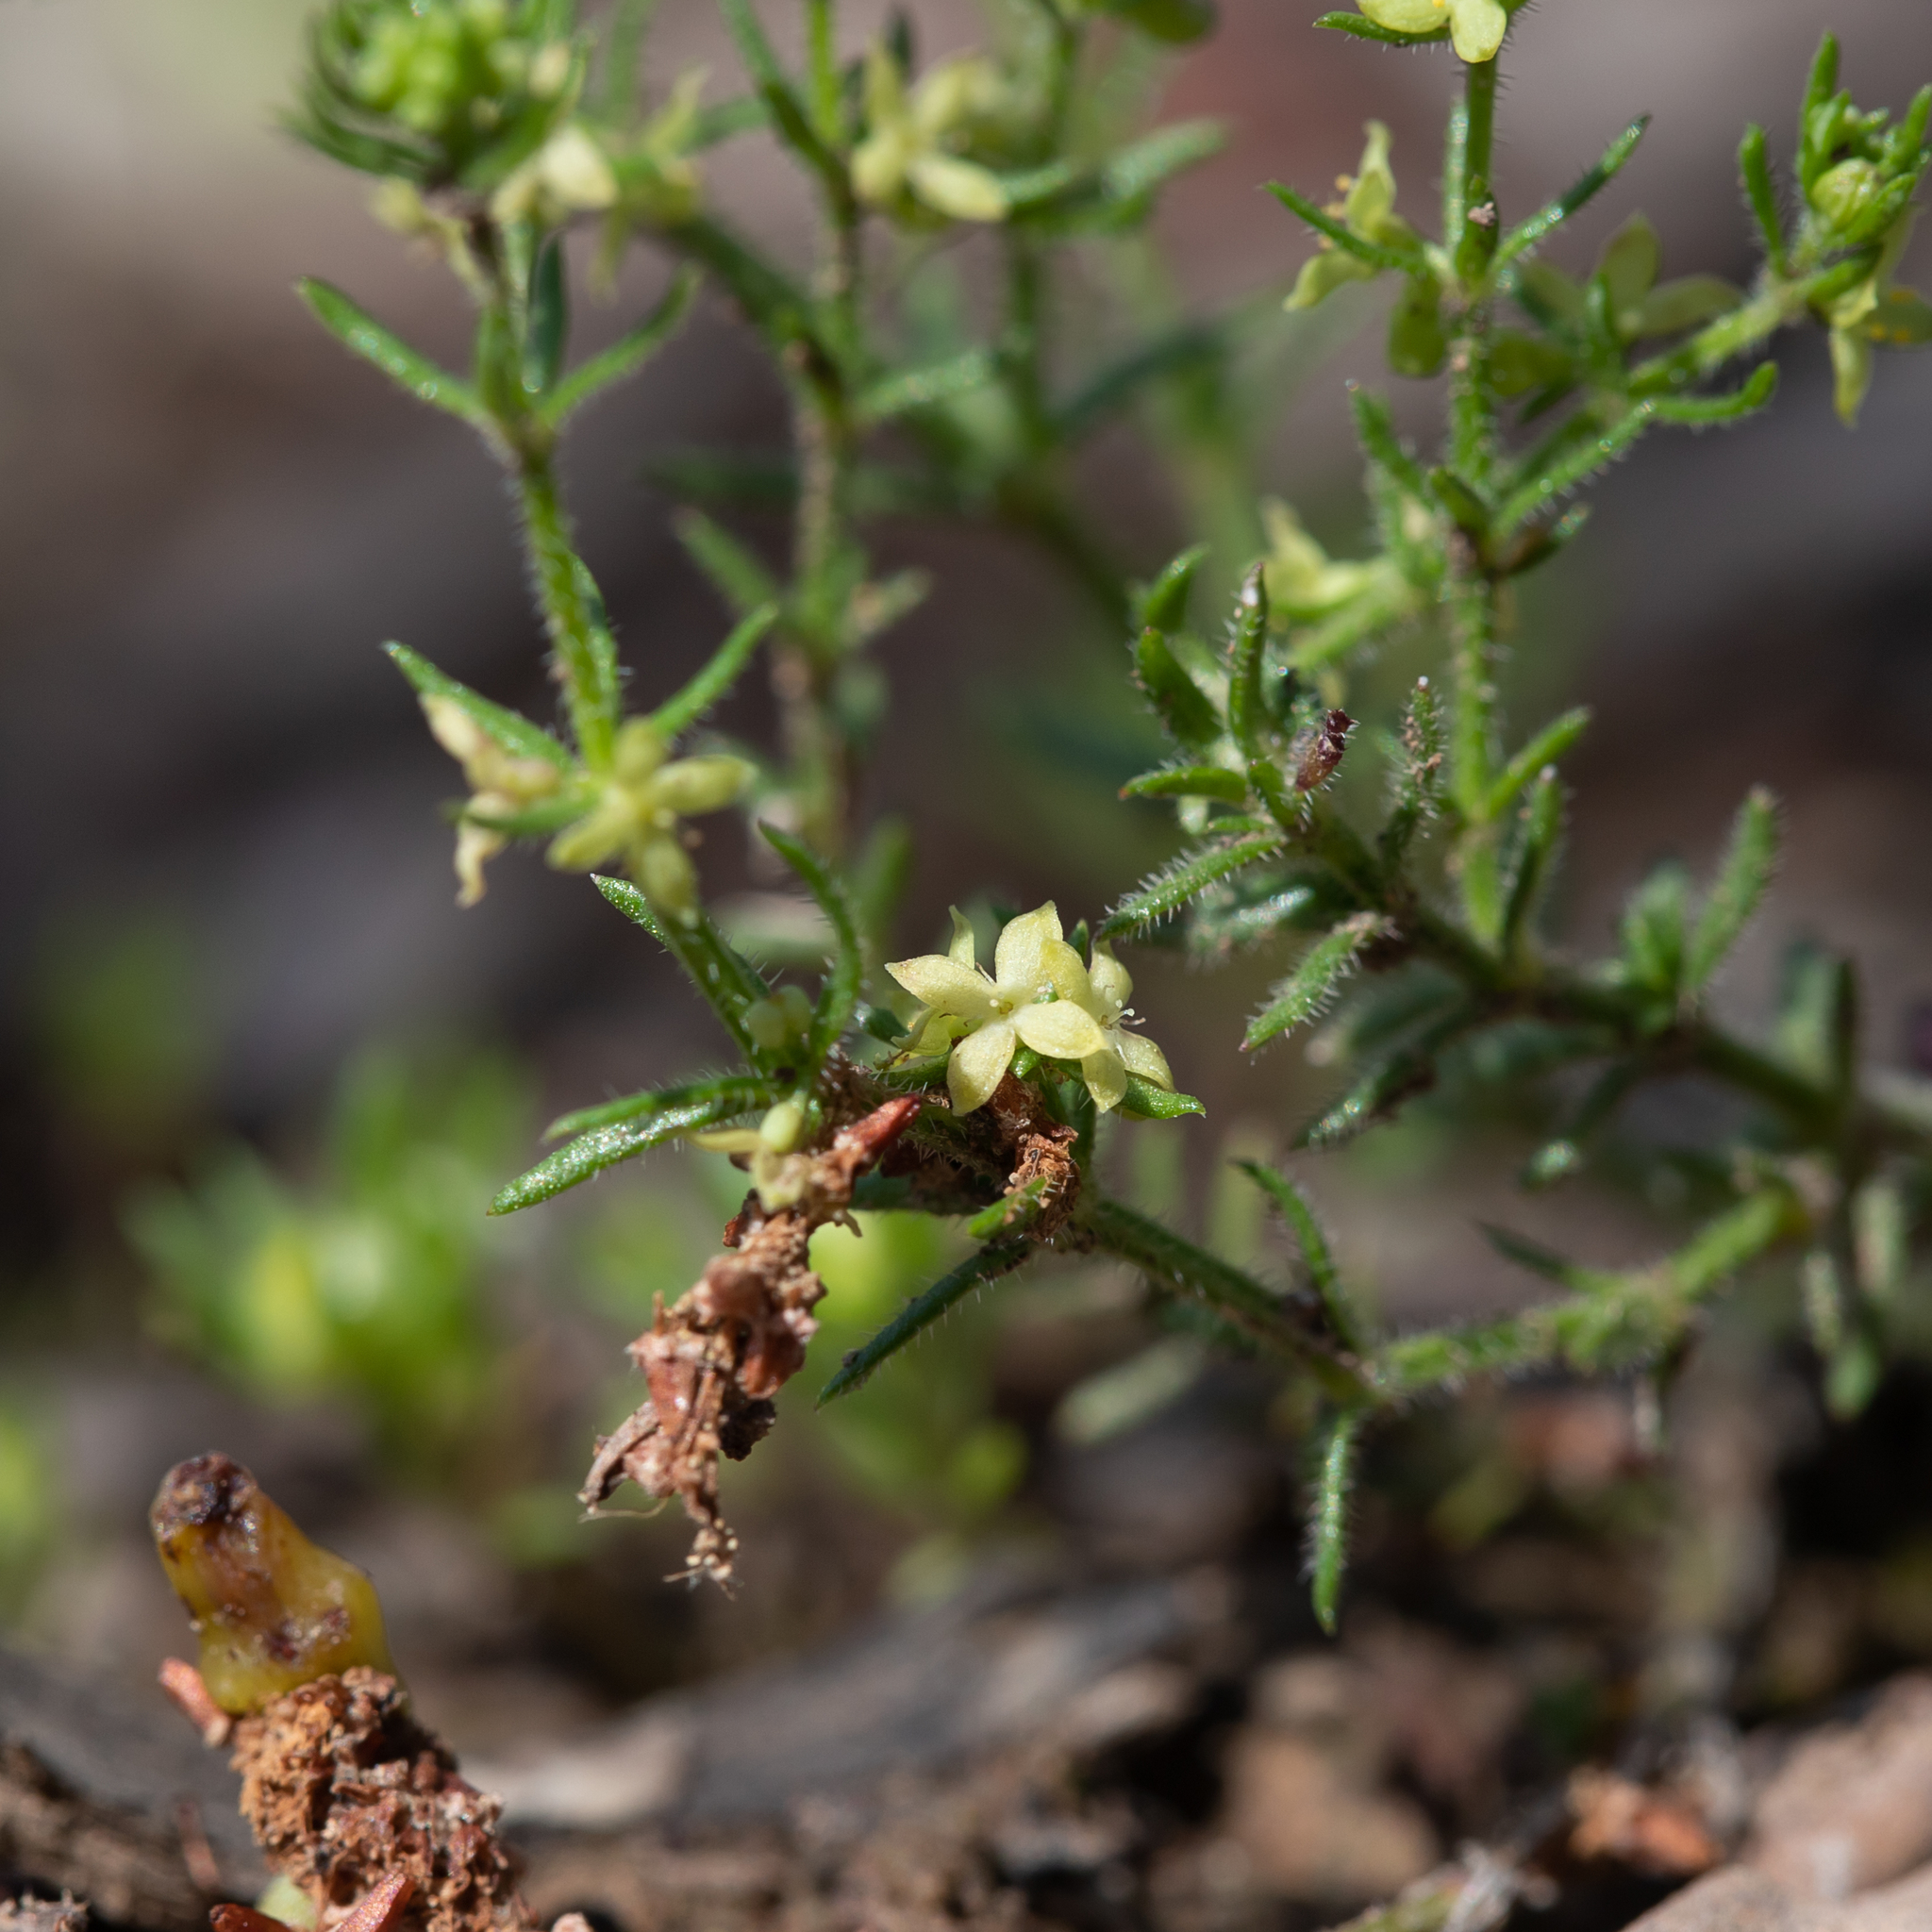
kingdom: Plantae
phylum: Tracheophyta
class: Magnoliopsida
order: Gentianales
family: Rubiaceae
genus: Galium
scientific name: Galium gaudichaudii
